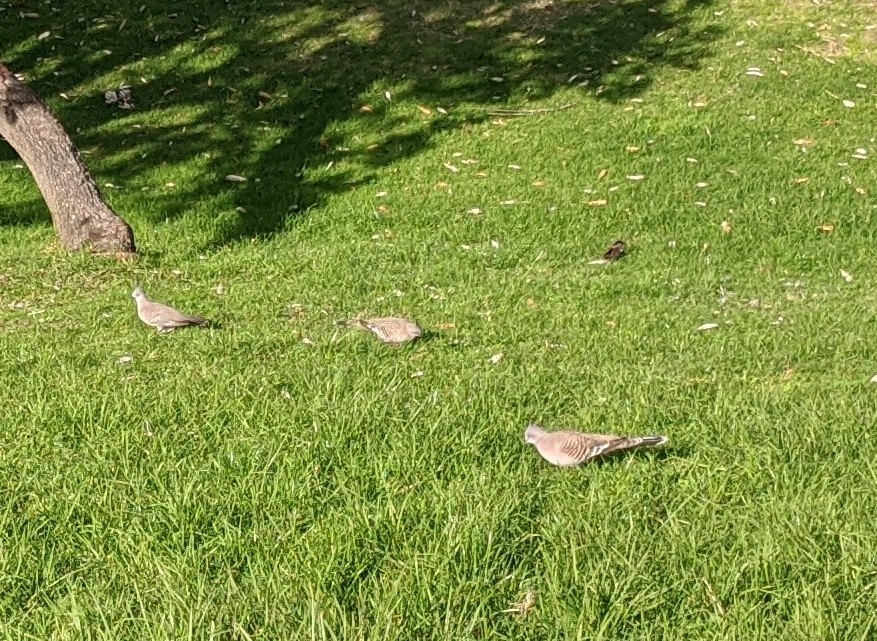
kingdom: Animalia
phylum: Chordata
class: Aves
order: Columbiformes
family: Columbidae
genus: Ocyphaps
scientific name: Ocyphaps lophotes
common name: Crested pigeon
